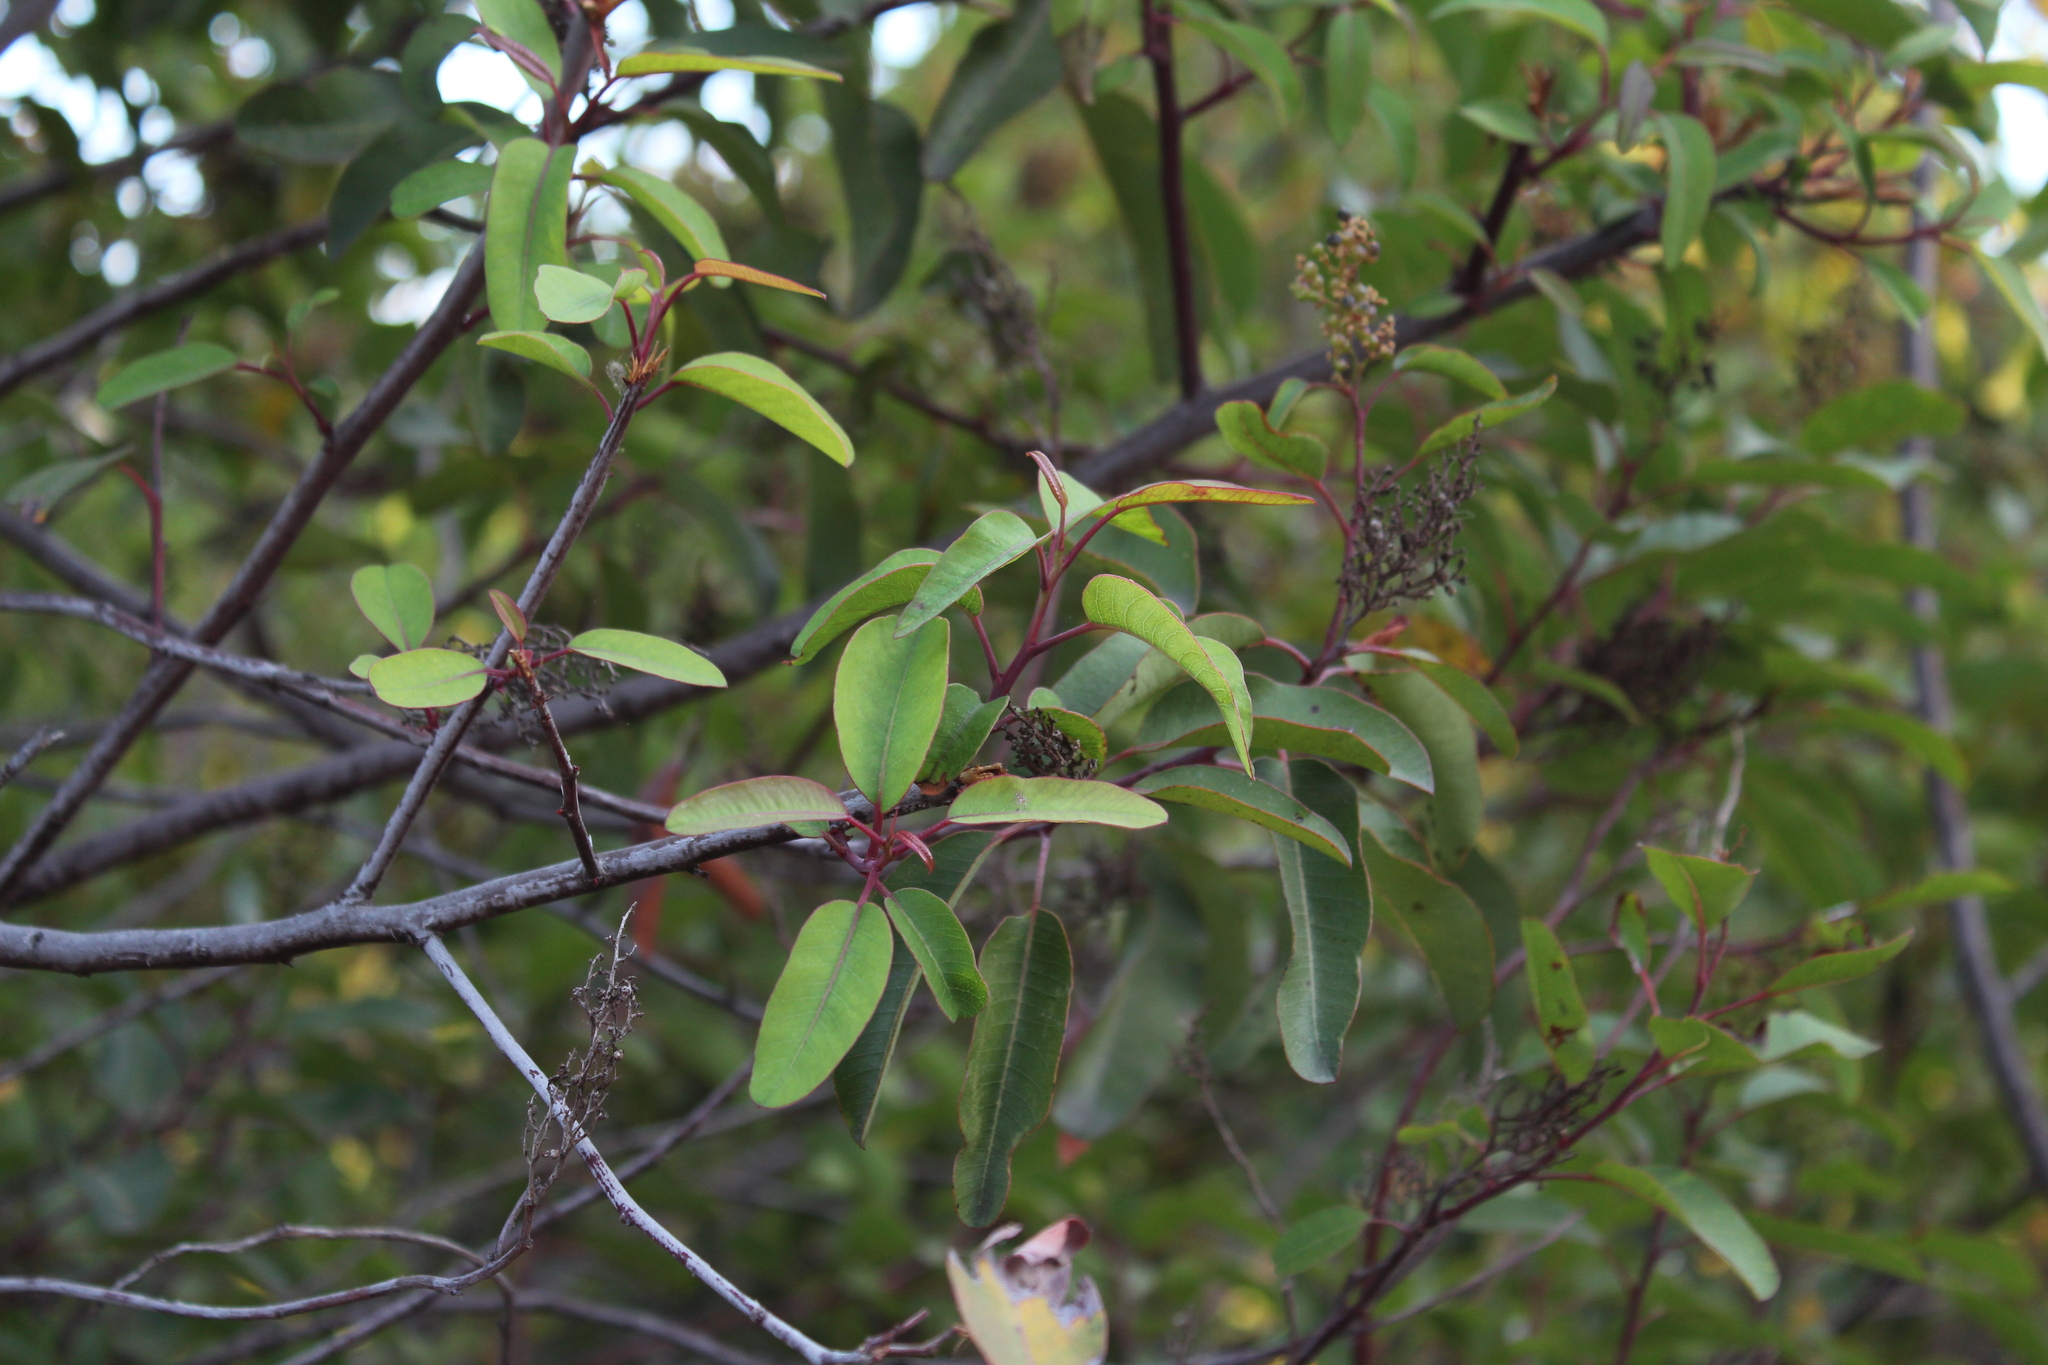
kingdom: Plantae
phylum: Tracheophyta
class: Magnoliopsida
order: Sapindales
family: Anacardiaceae
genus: Malosma
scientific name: Malosma laurina
